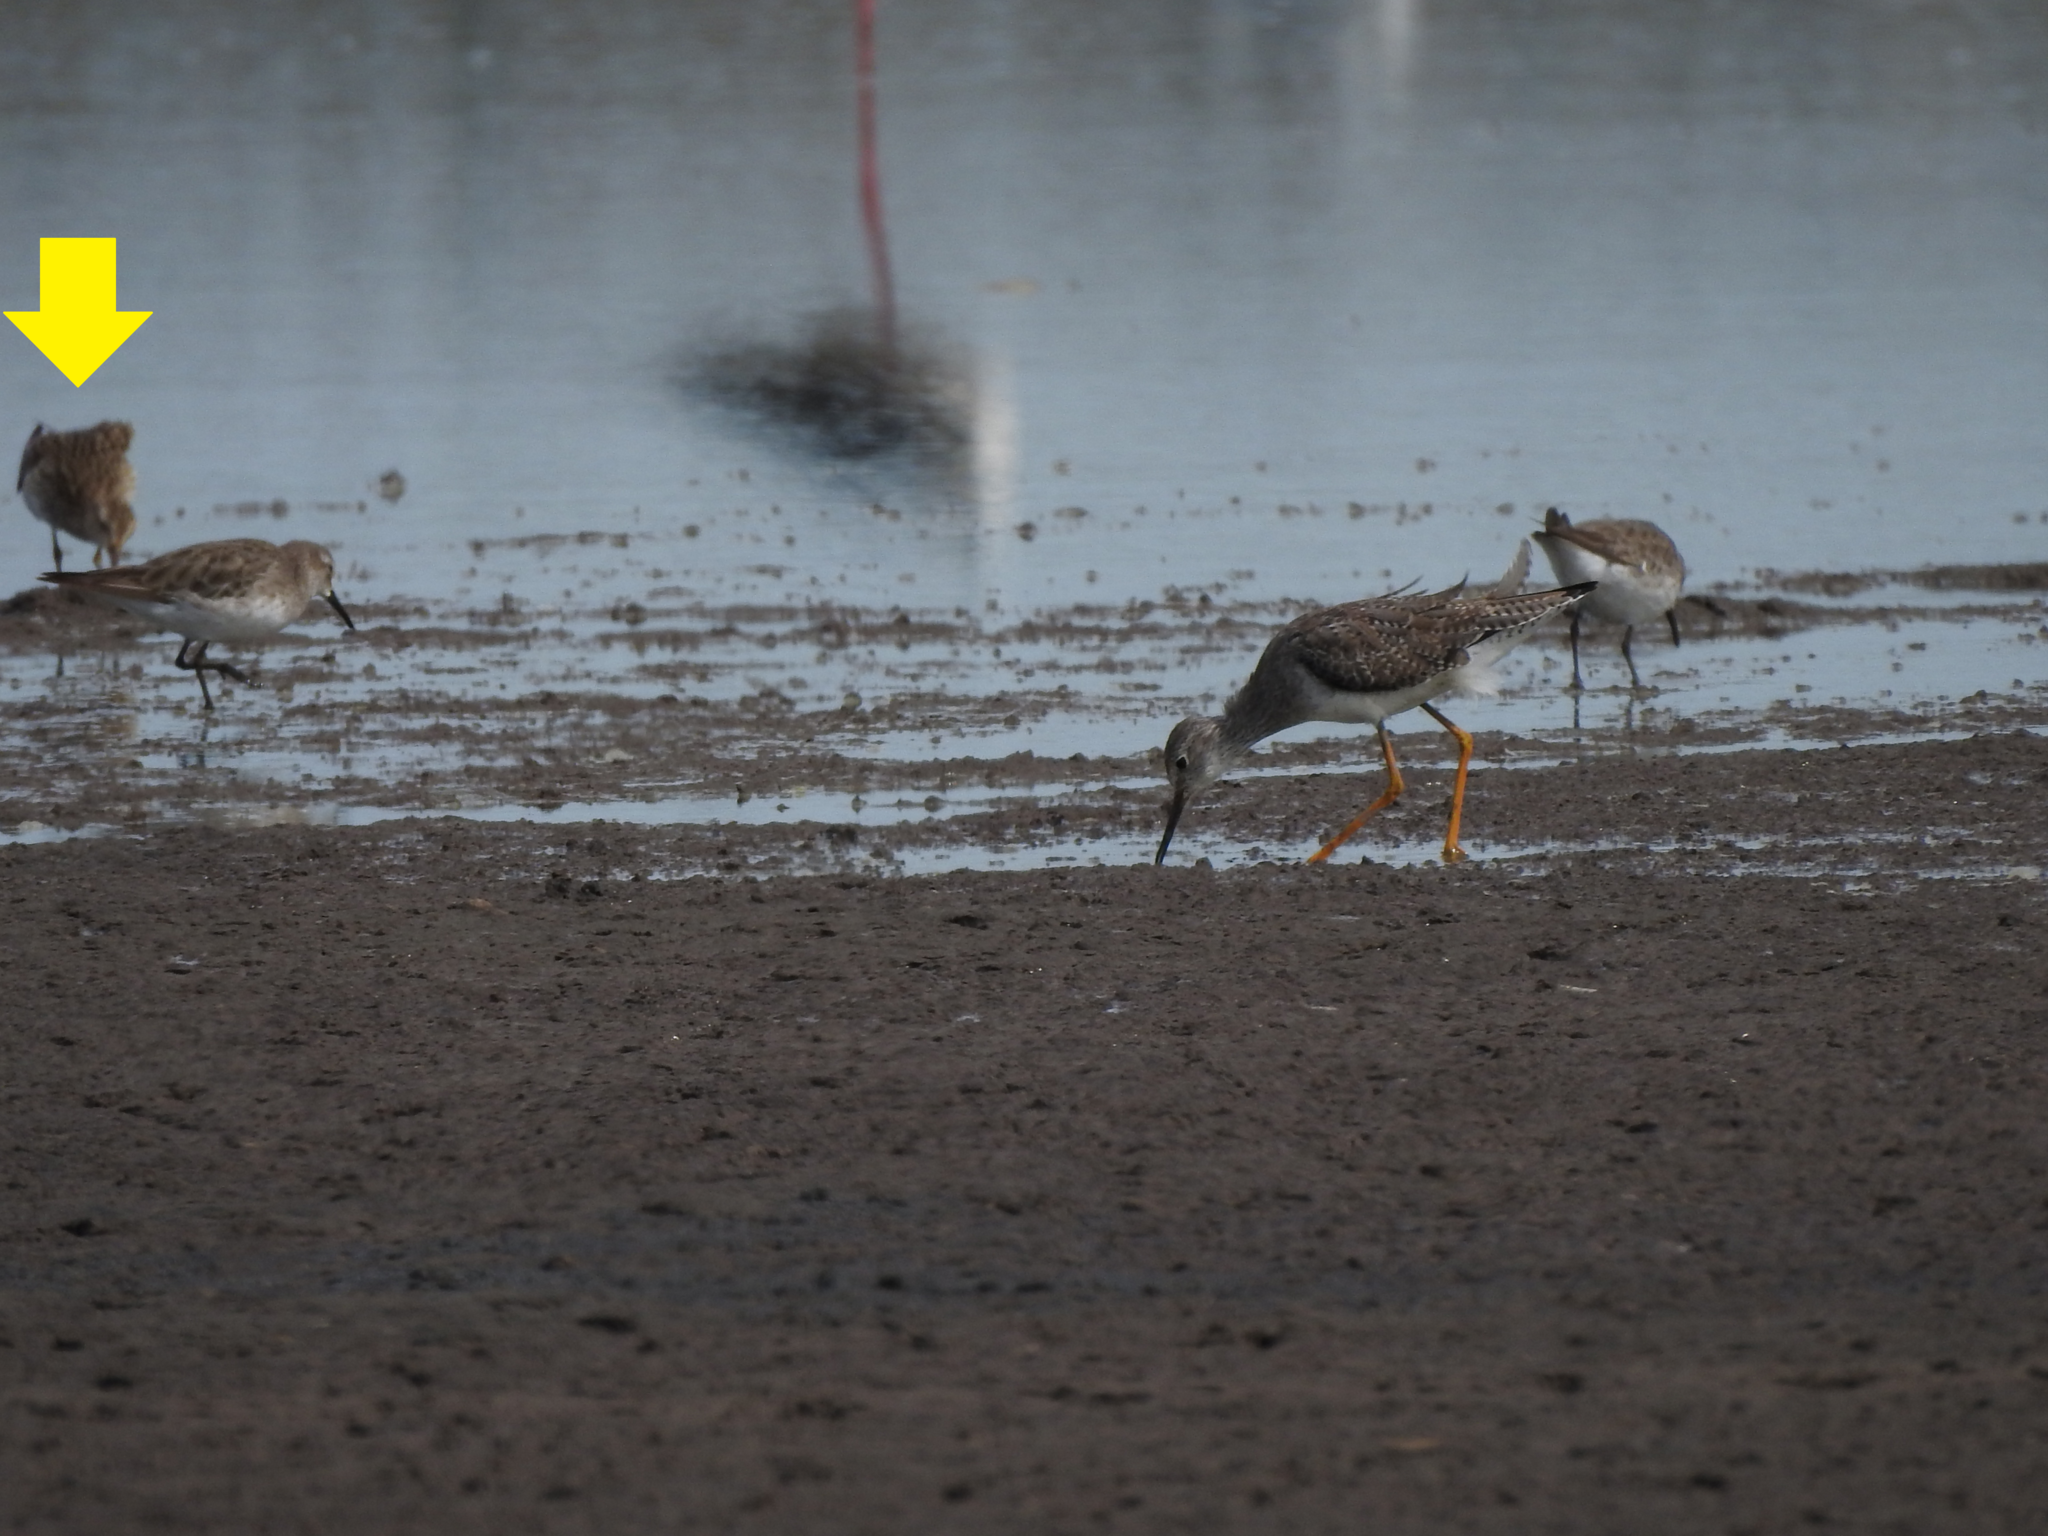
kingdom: Animalia
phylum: Chordata
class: Aves
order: Charadriiformes
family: Scolopacidae
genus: Calidris
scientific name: Calidris melanotos
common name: Pectoral sandpiper
